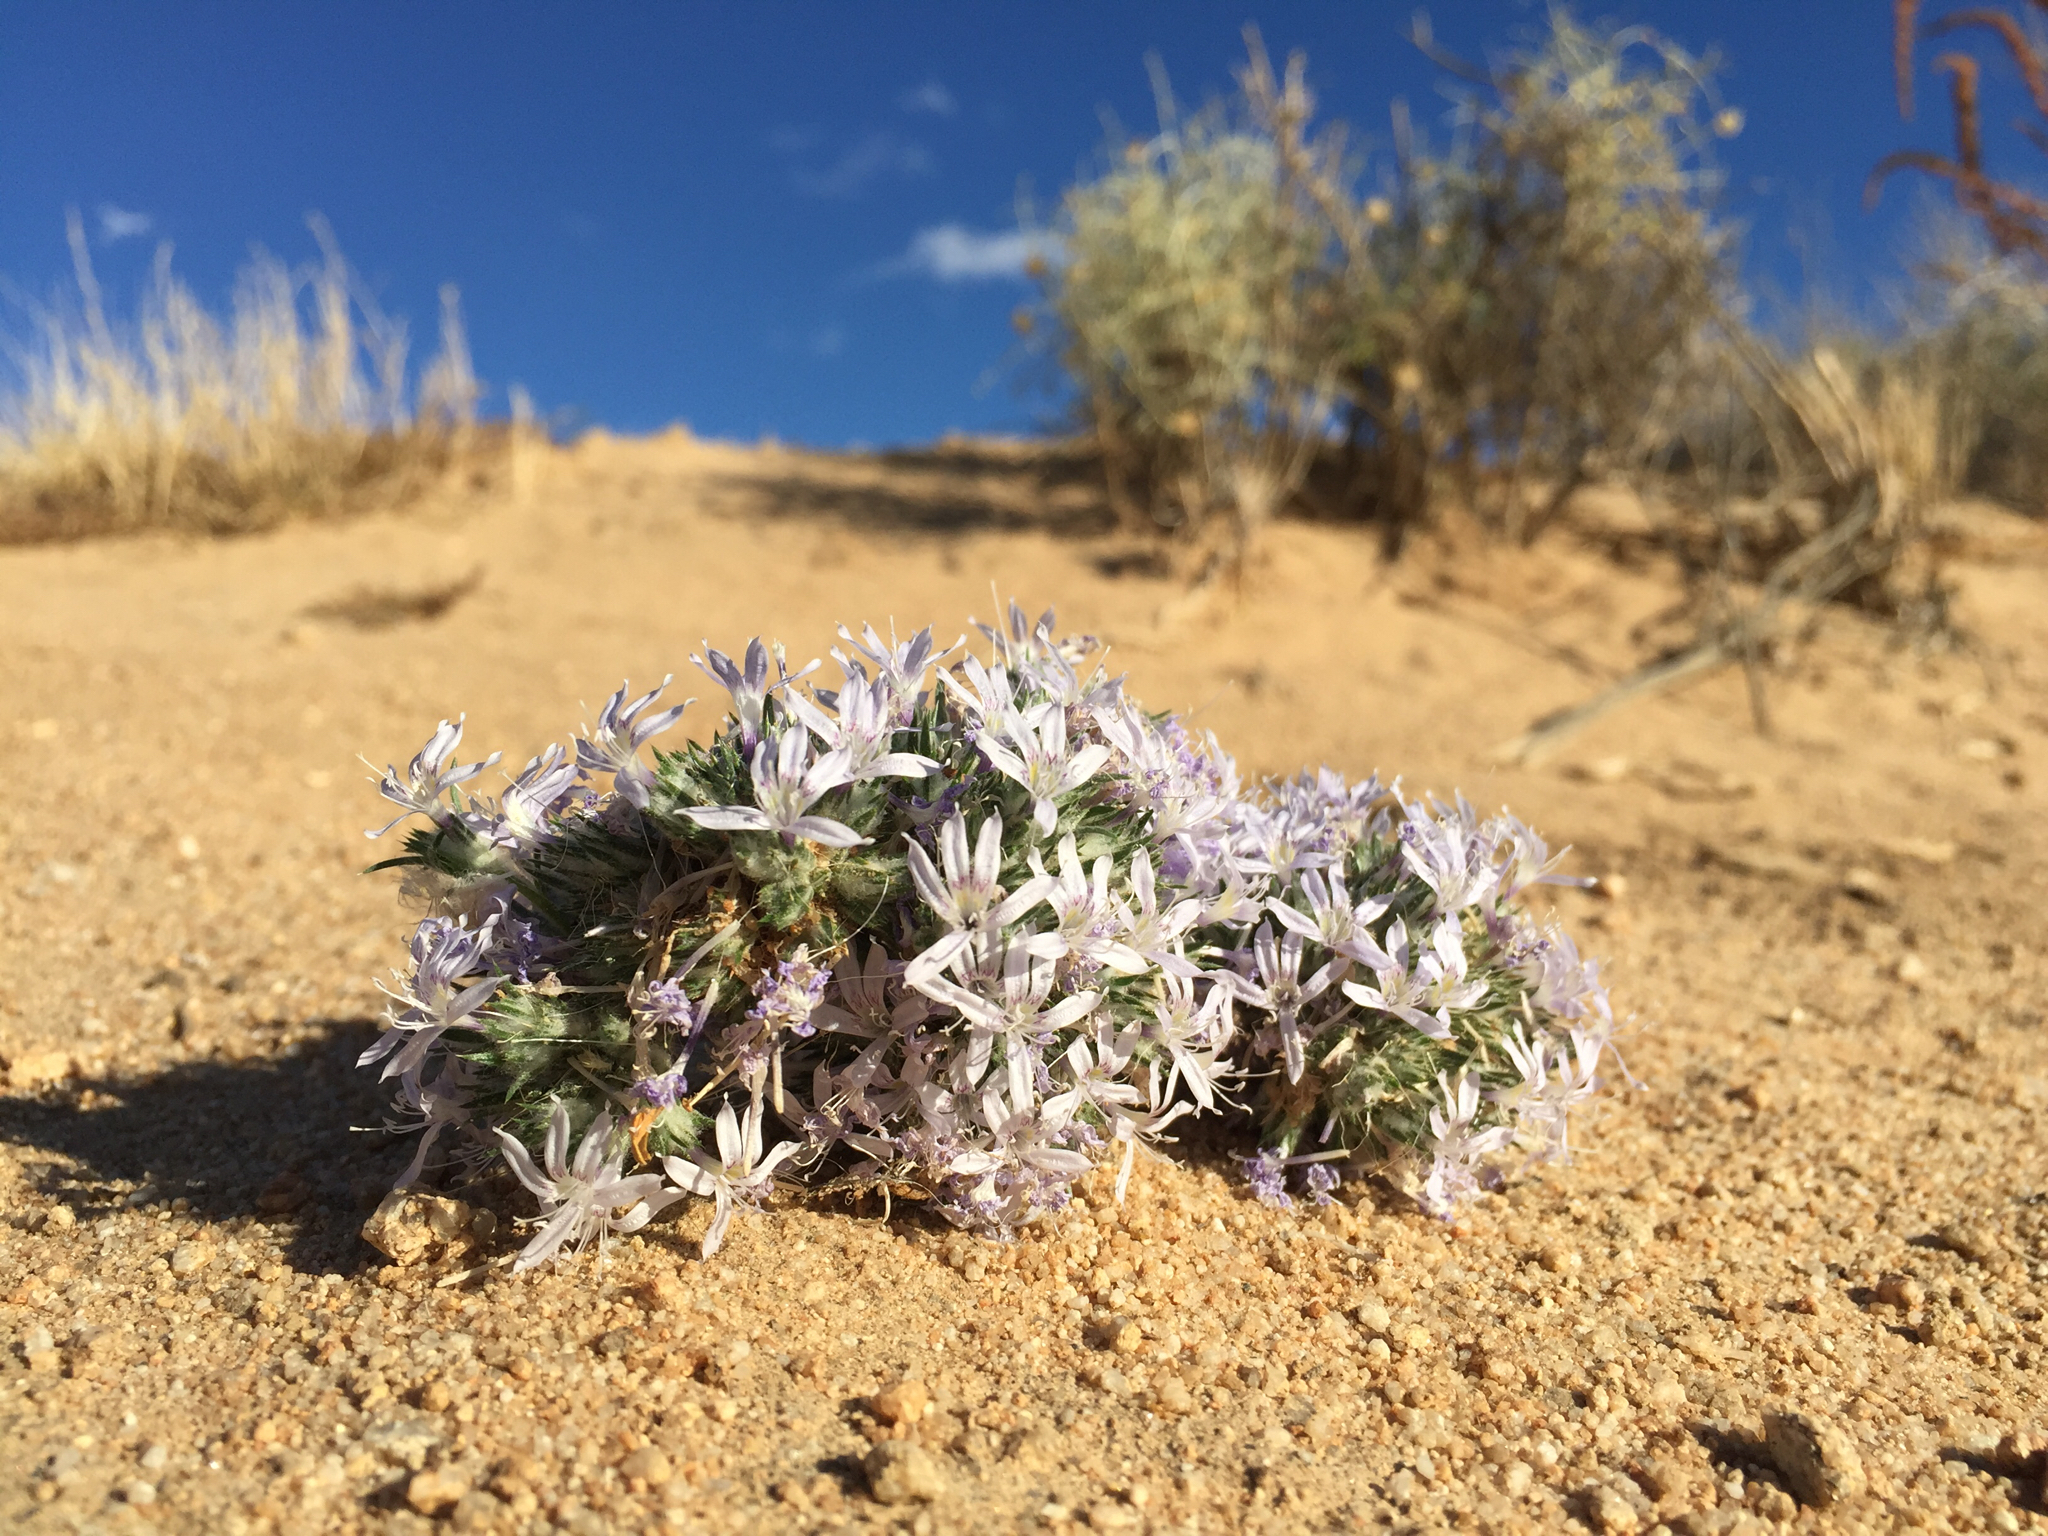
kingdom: Plantae
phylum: Tracheophyta
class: Magnoliopsida
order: Ericales
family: Polemoniaceae
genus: Eriastrum
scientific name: Eriastrum eremicum
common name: Desert eriastrum
